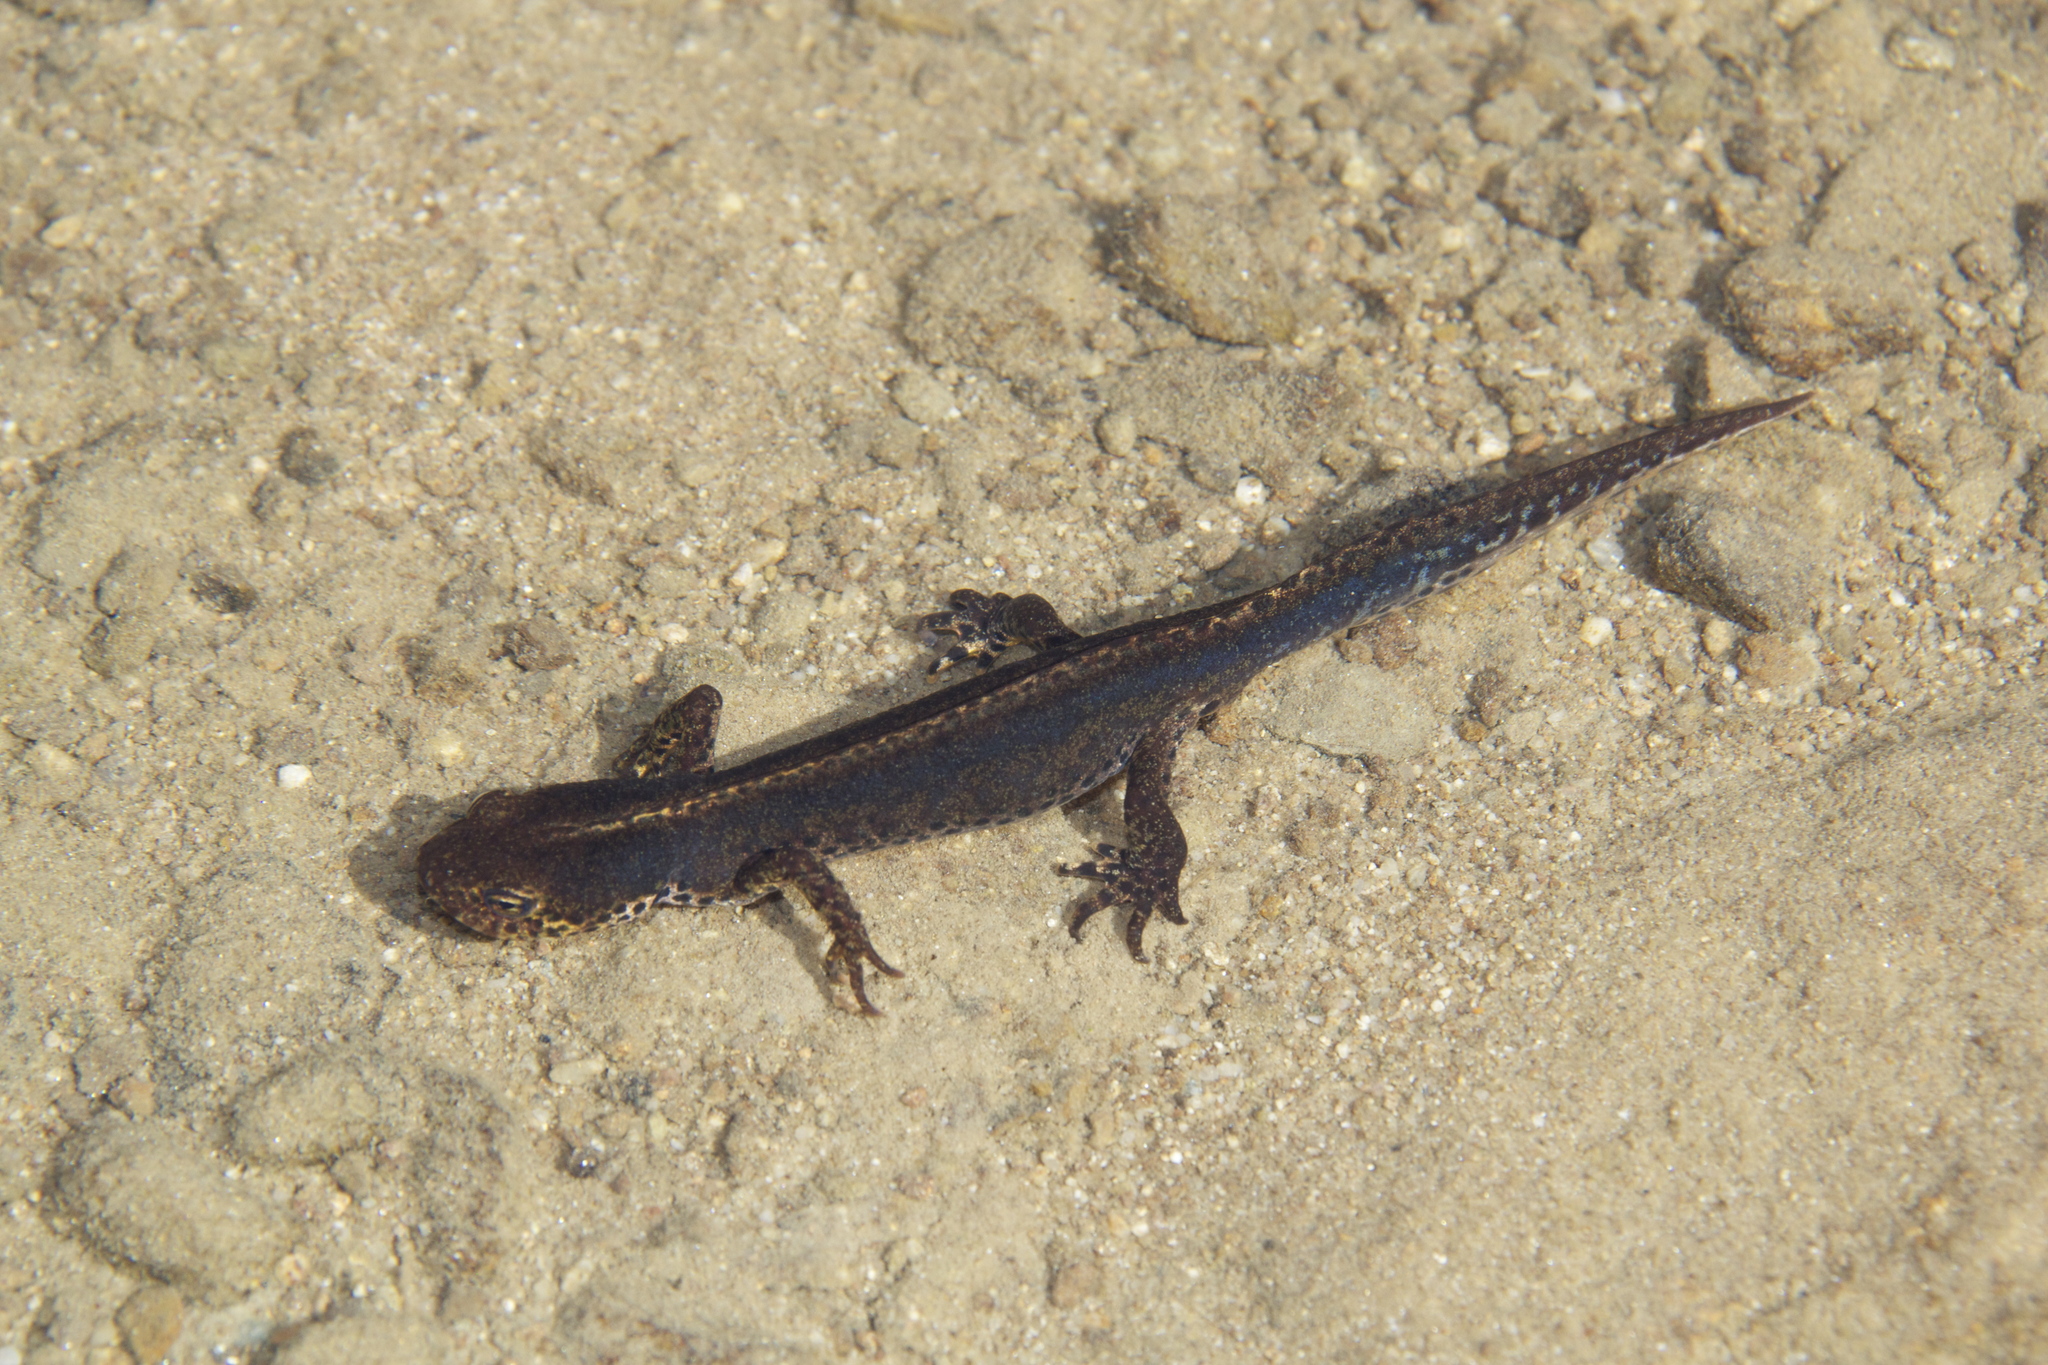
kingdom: Animalia
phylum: Chordata
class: Amphibia
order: Caudata
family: Salamandridae
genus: Ichthyosaura
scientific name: Ichthyosaura alpestris
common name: Alpine newt
